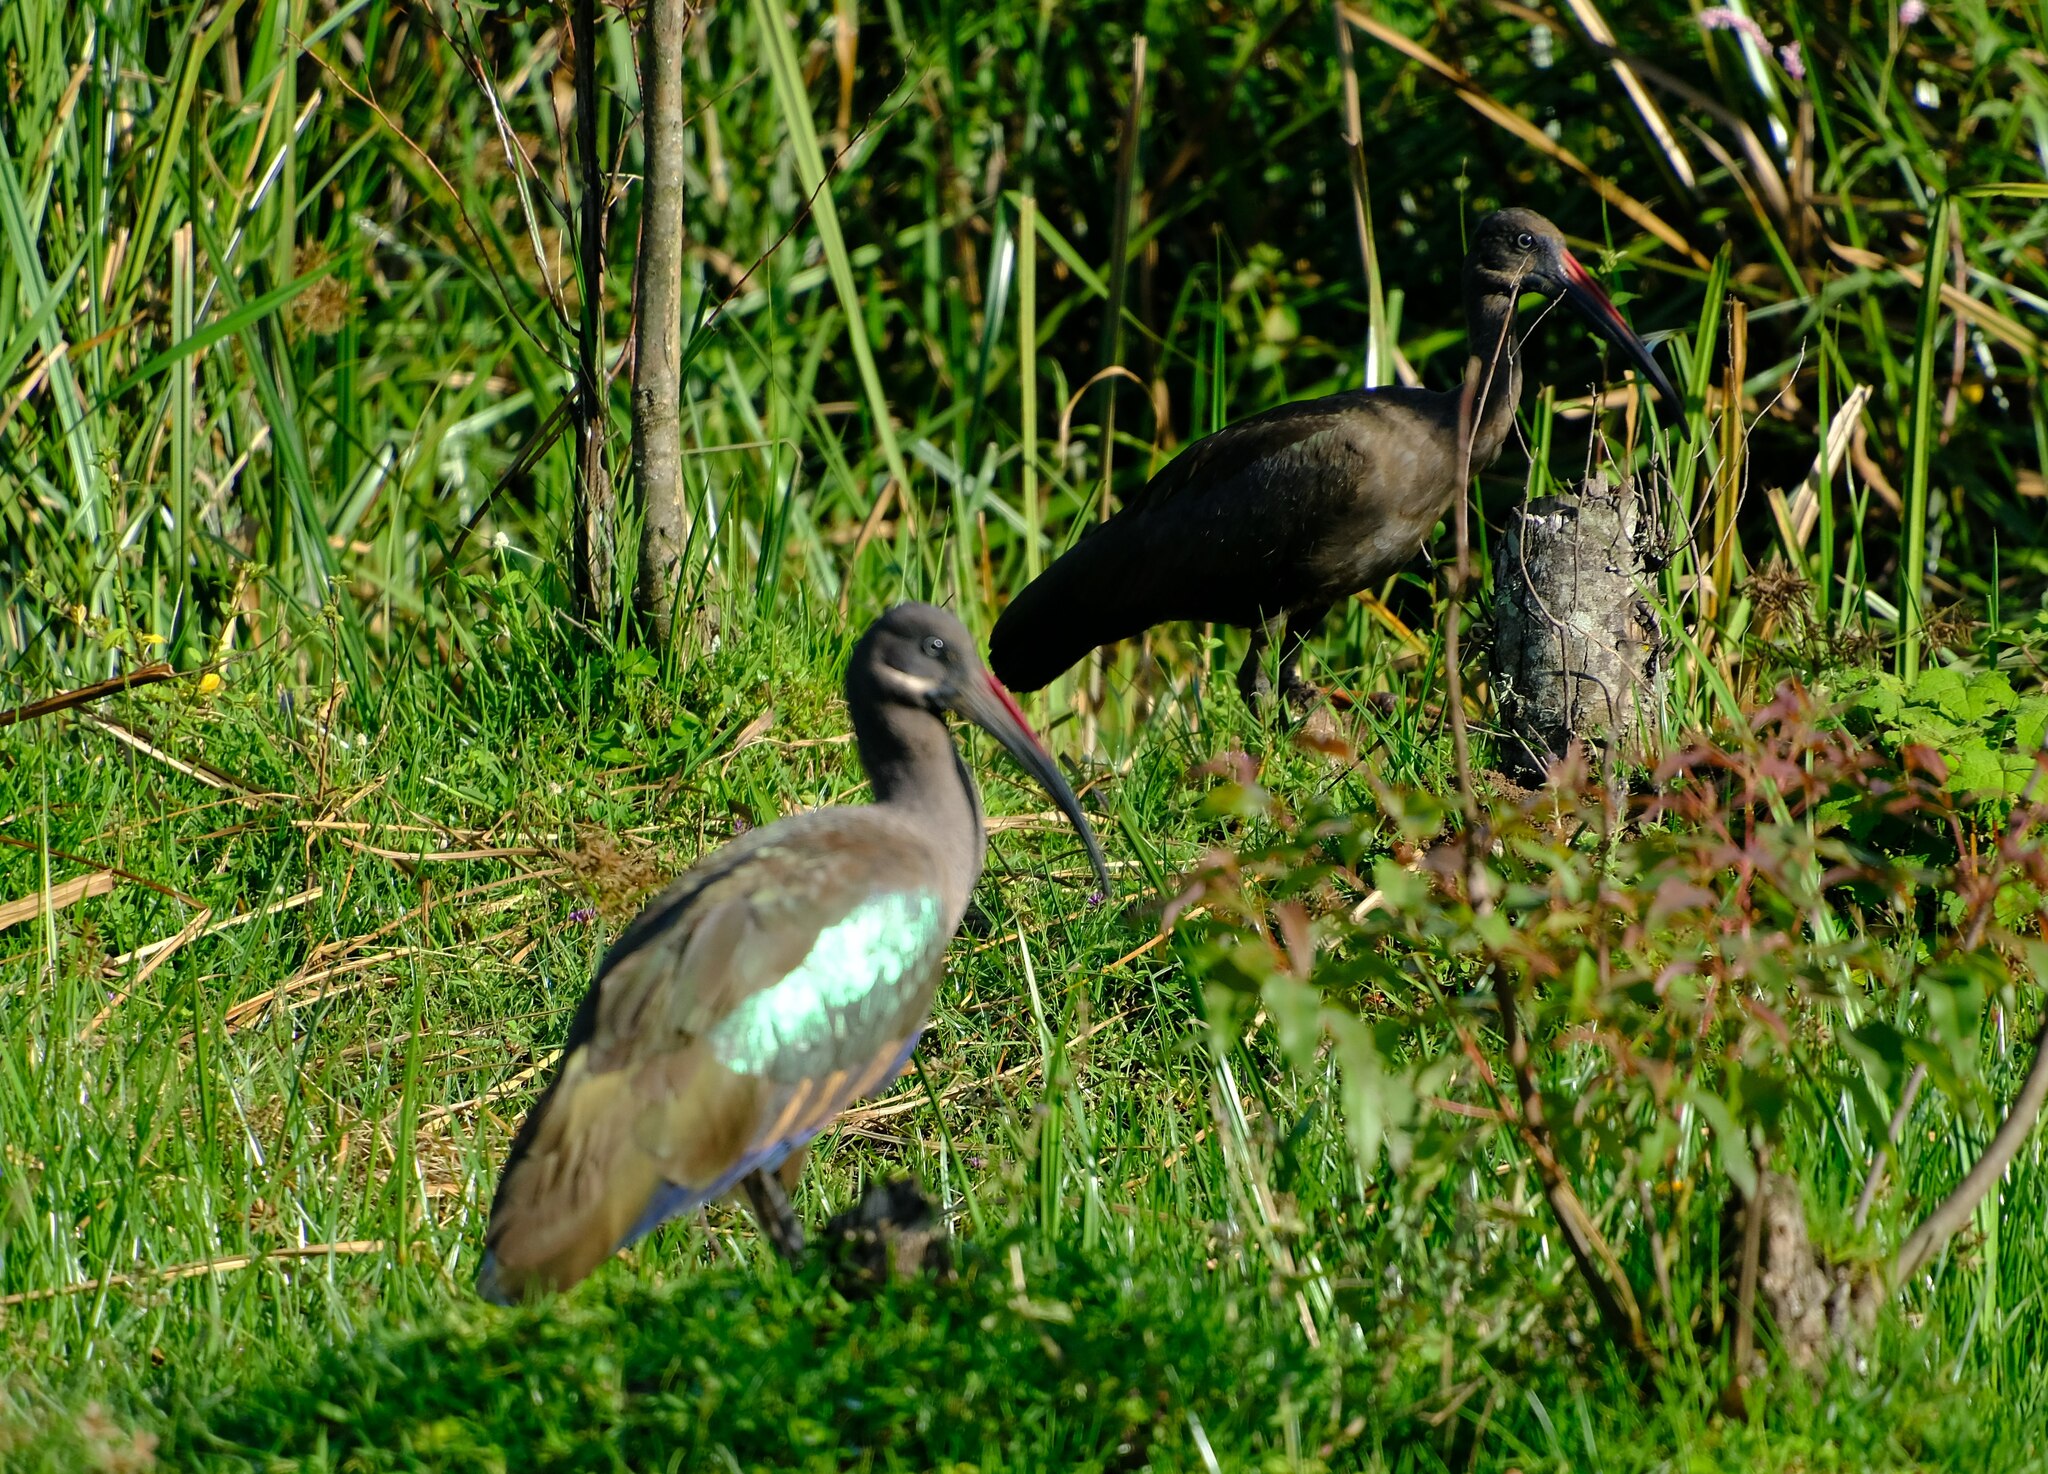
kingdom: Animalia
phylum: Chordata
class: Aves
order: Pelecaniformes
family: Threskiornithidae
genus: Bostrychia
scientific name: Bostrychia hagedash
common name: Hadada ibis
